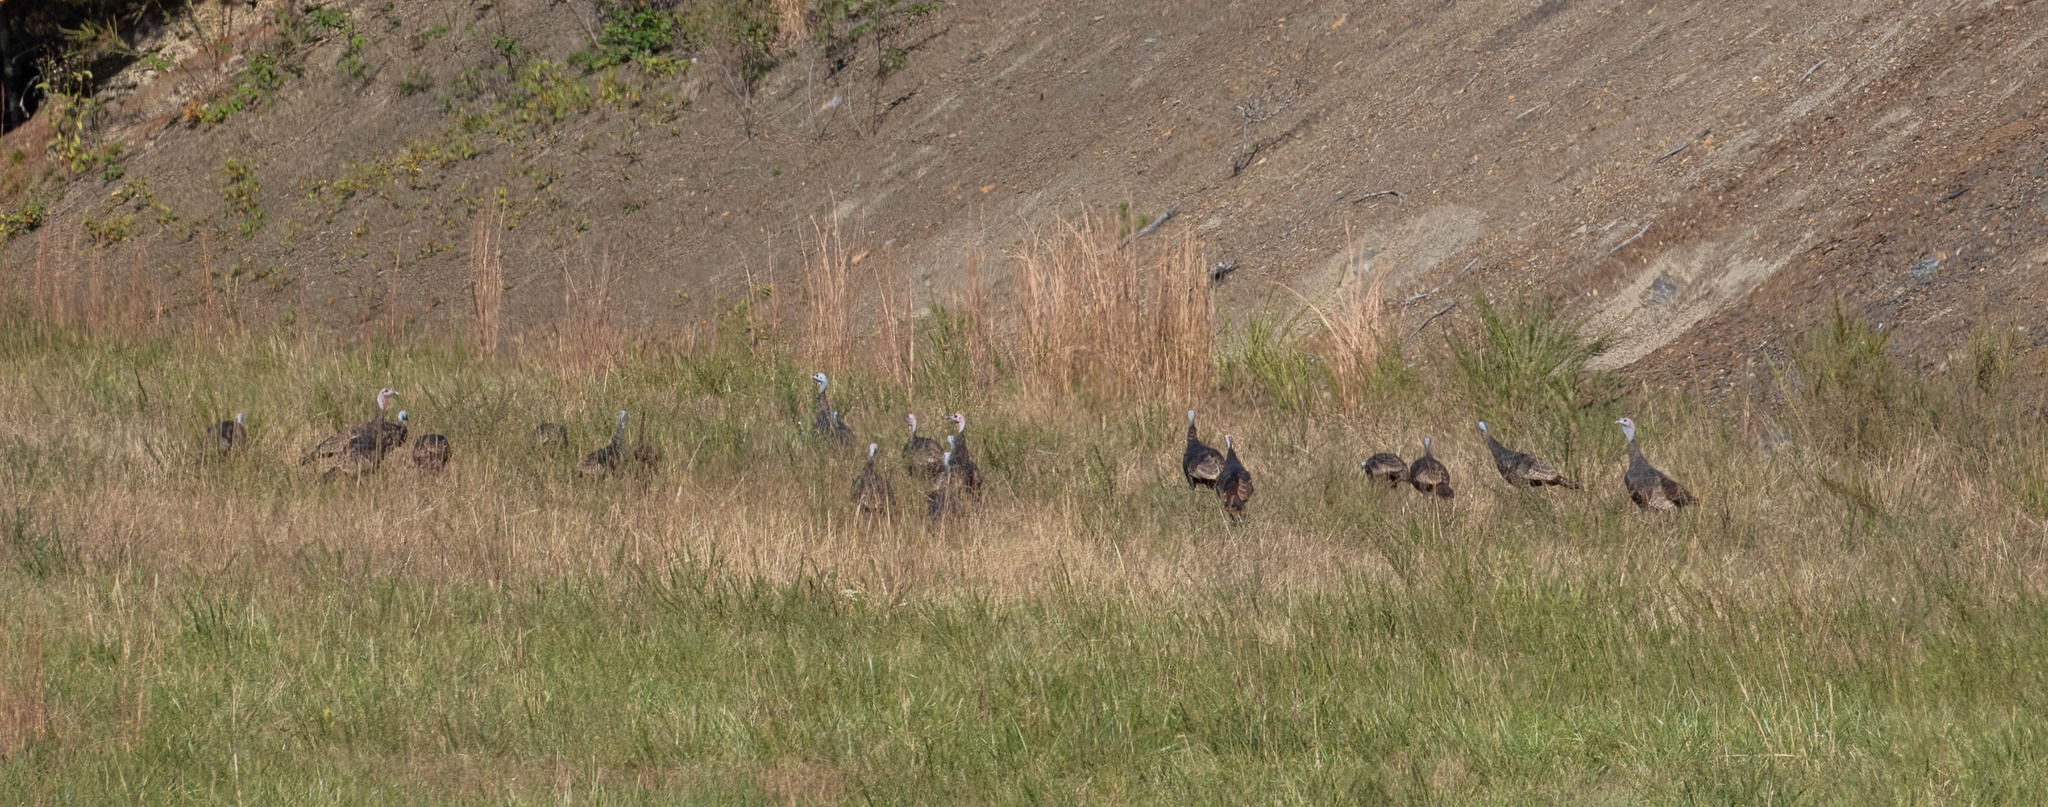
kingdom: Animalia
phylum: Chordata
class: Aves
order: Galliformes
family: Phasianidae
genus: Meleagris
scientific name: Meleagris gallopavo
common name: Wild turkey
